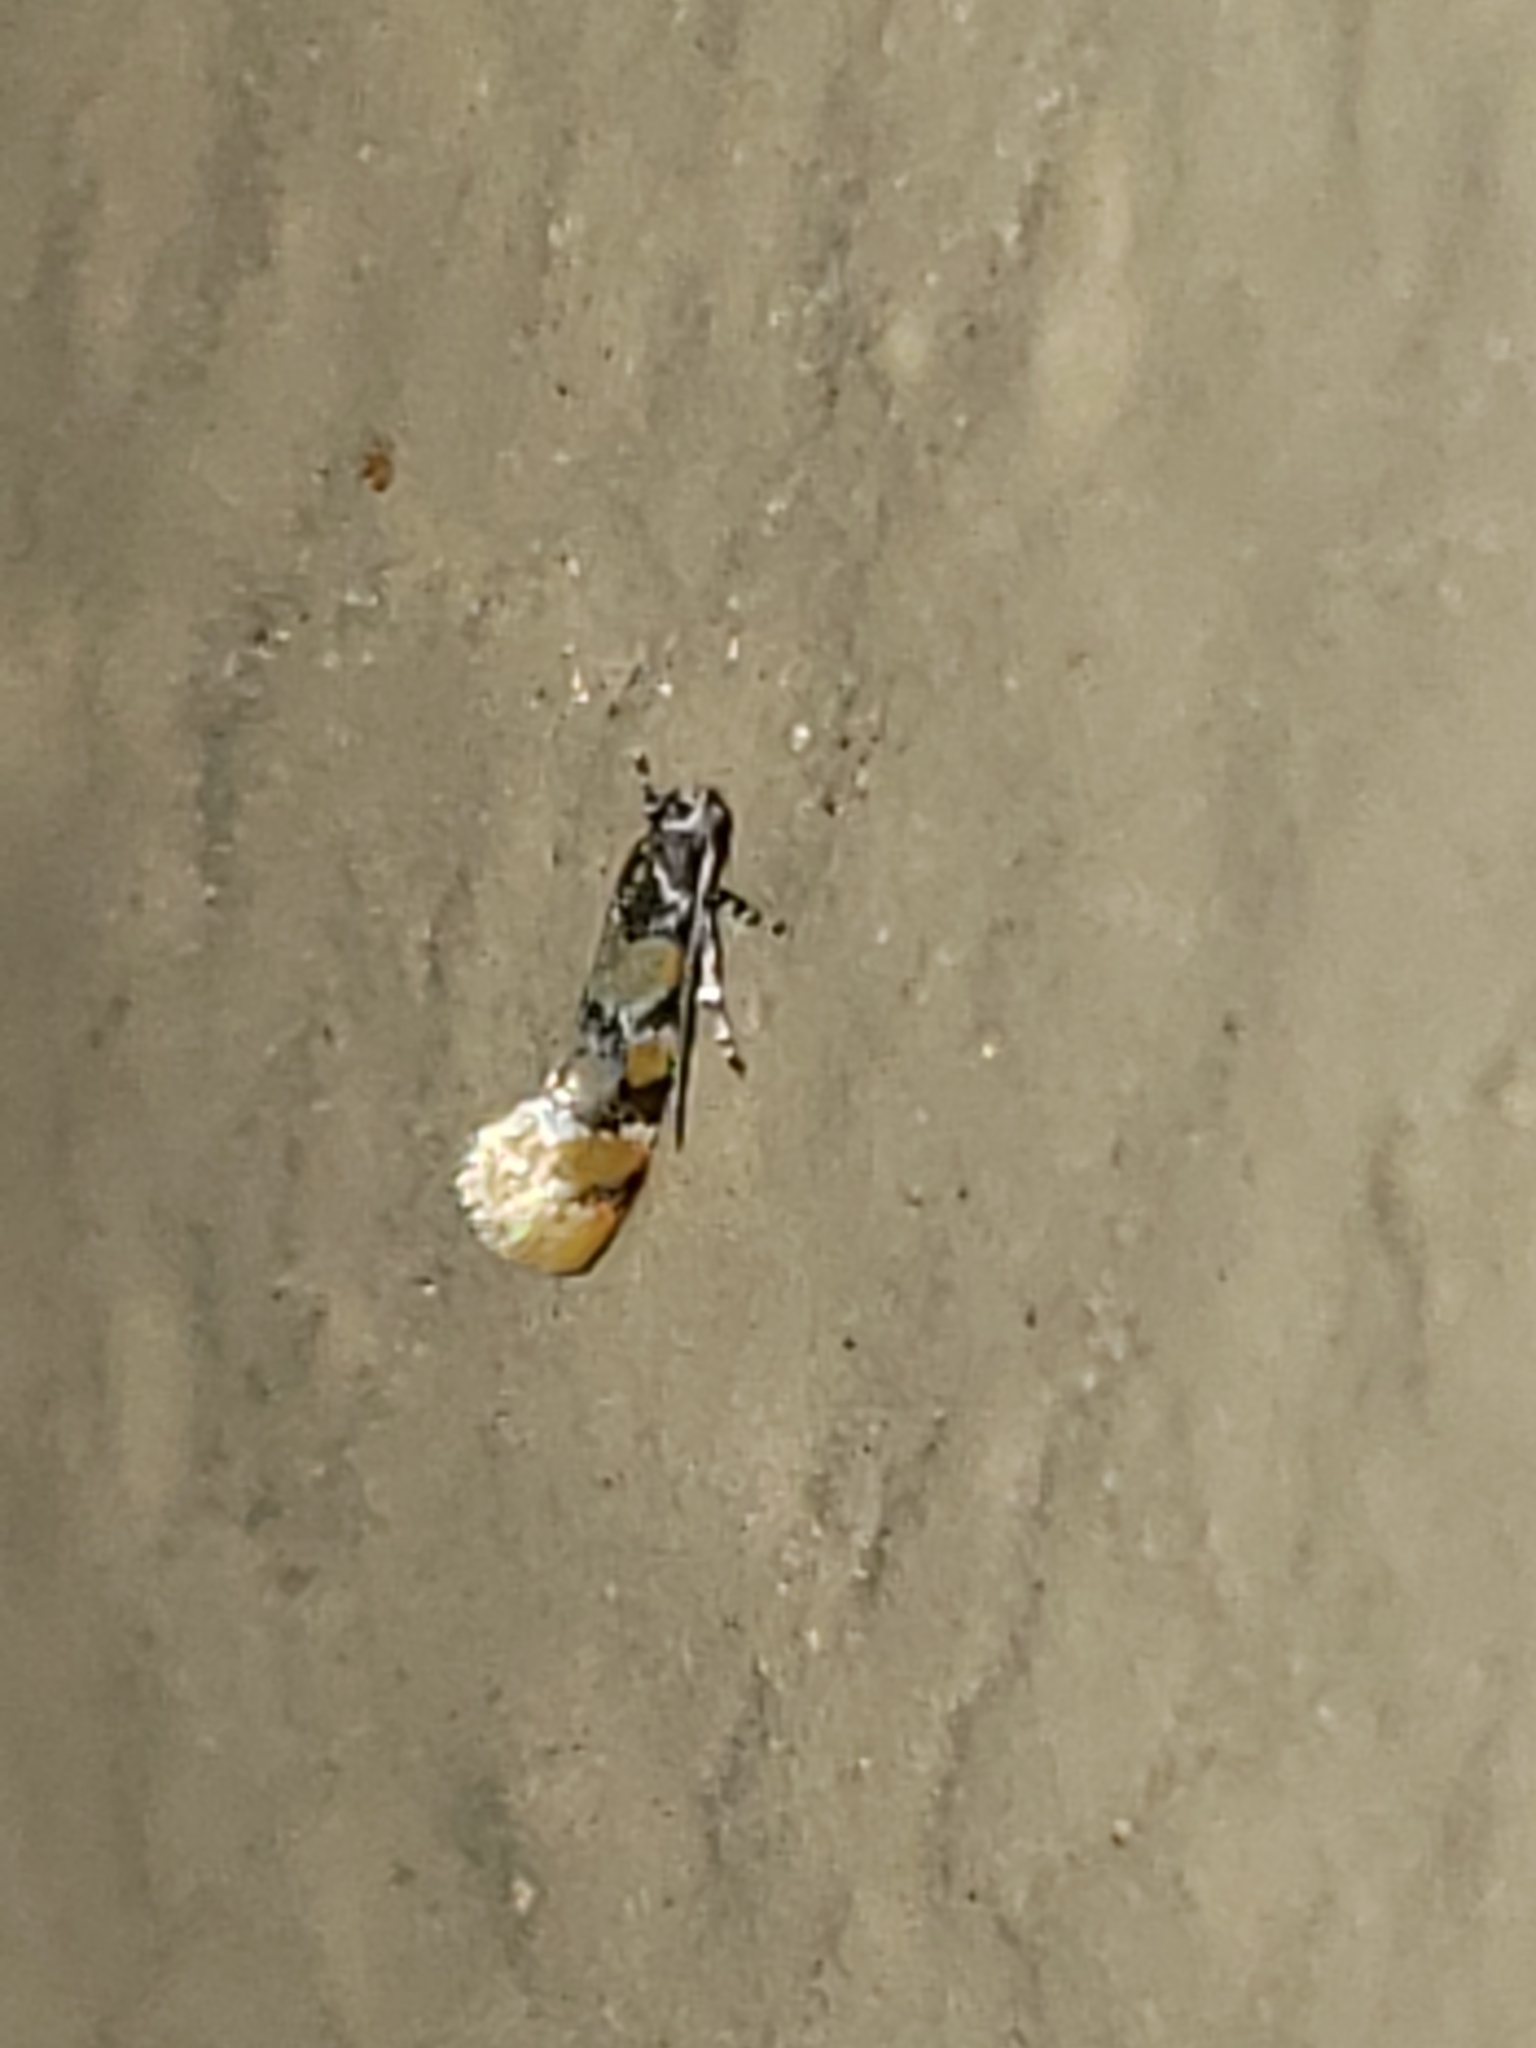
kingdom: Animalia
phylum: Arthropoda
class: Insecta
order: Lepidoptera
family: Oecophoridae
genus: Decantha
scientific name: Decantha stecia
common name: Small decantha moth
